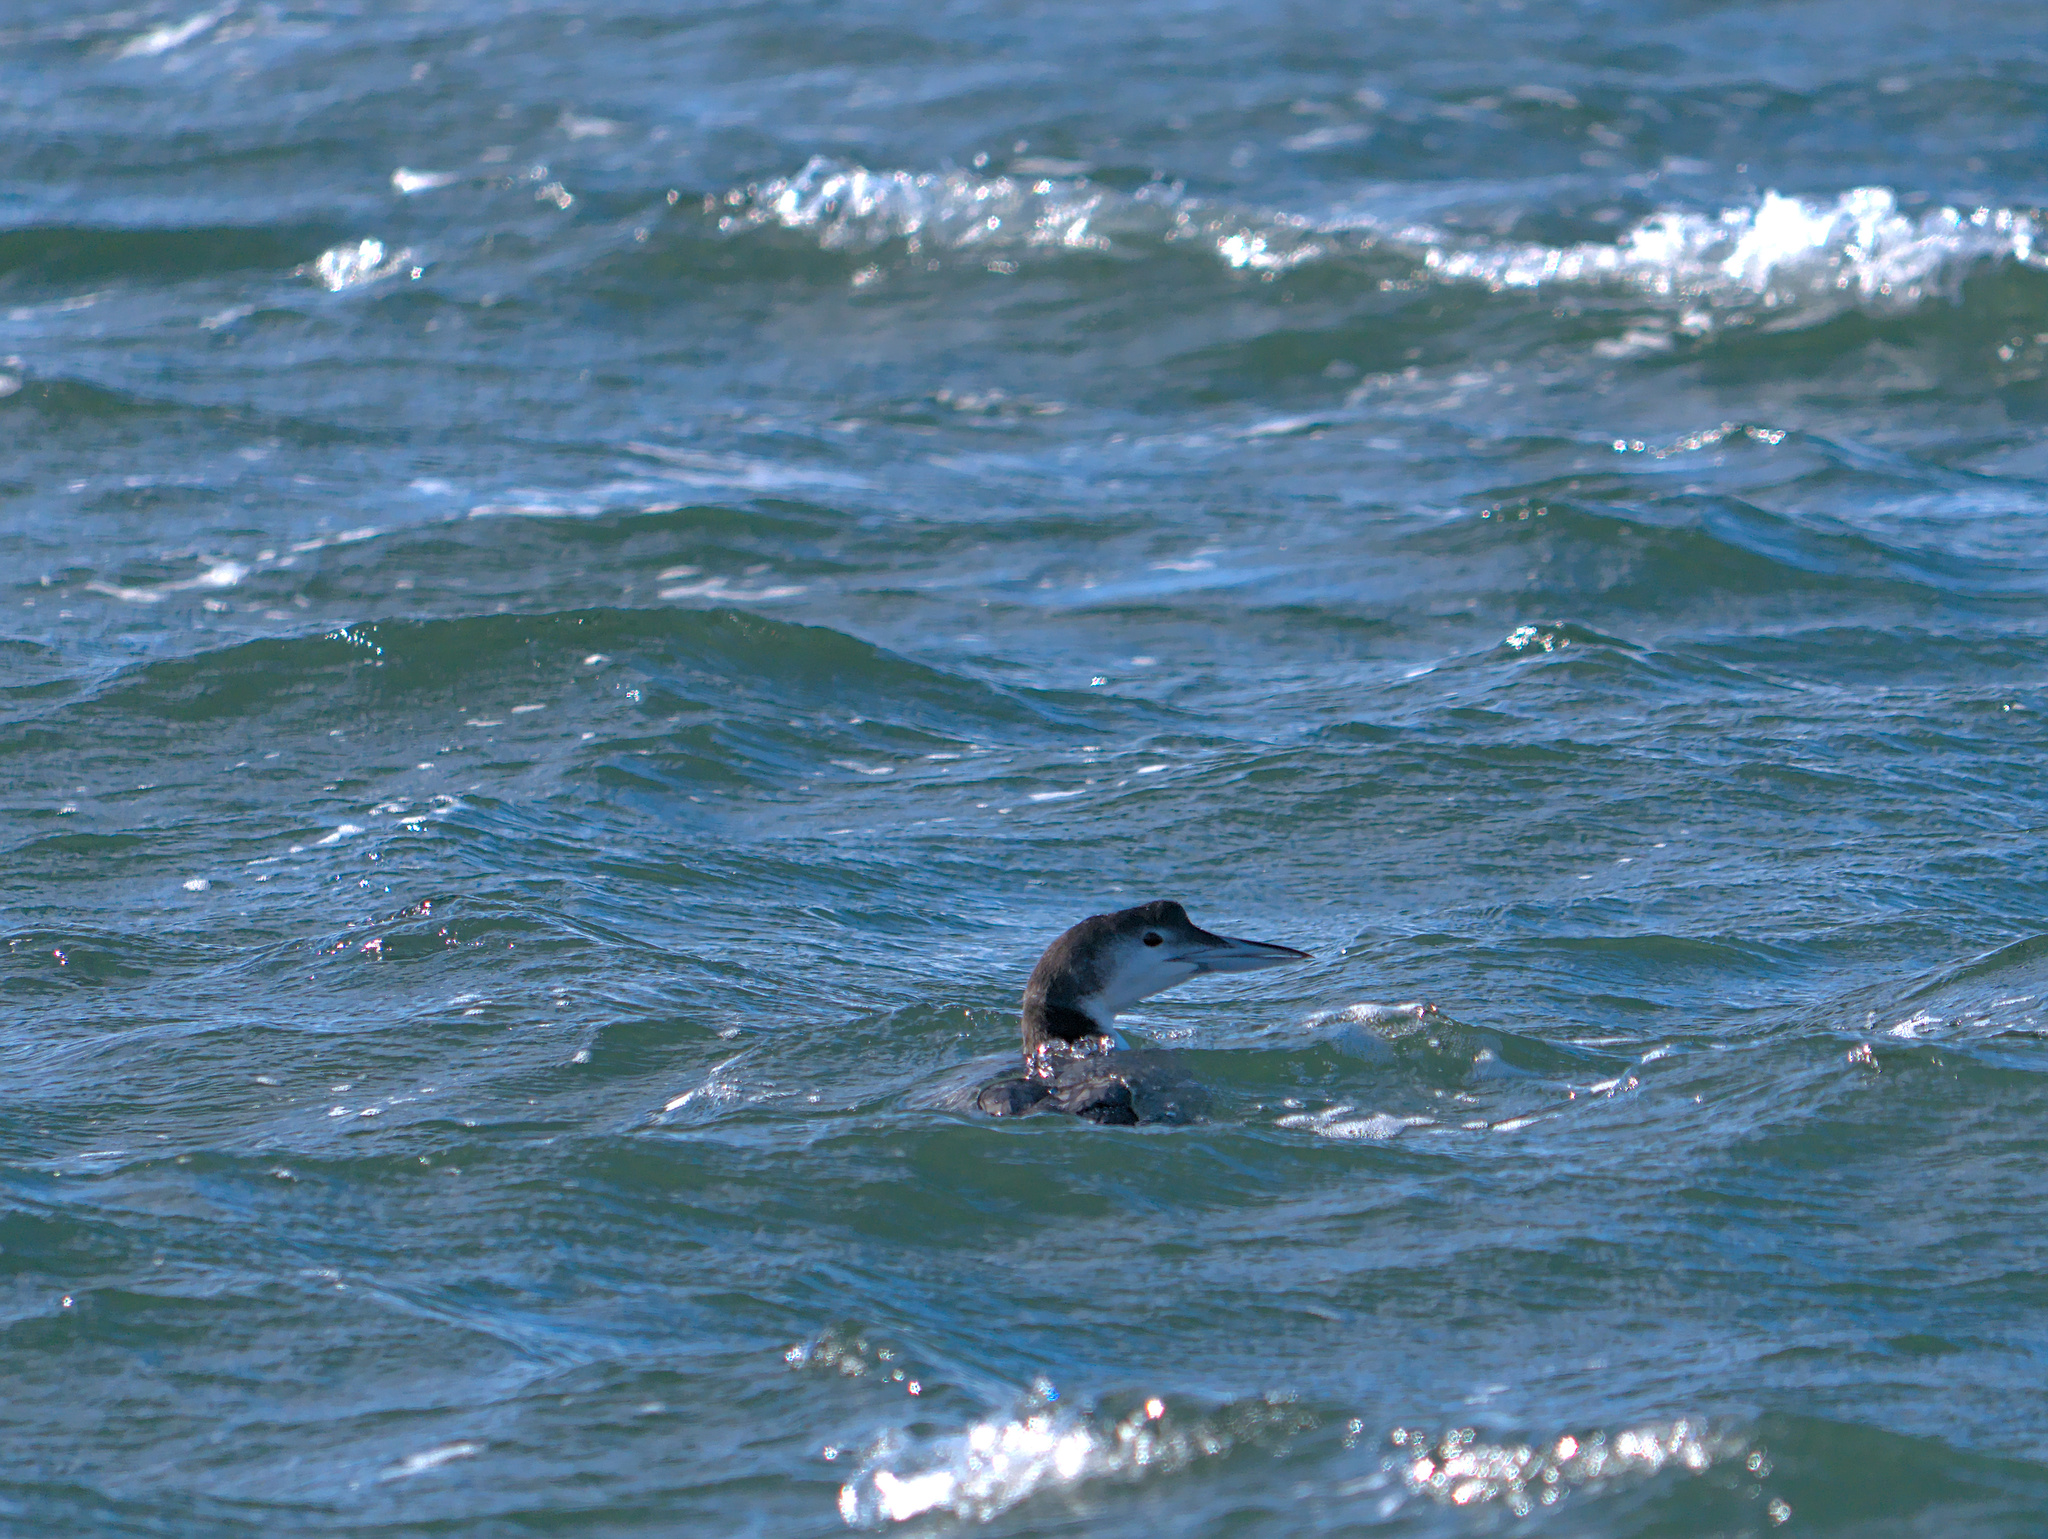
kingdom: Animalia
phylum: Chordata
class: Aves
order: Gaviiformes
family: Gaviidae
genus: Gavia
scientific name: Gavia immer
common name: Common loon
